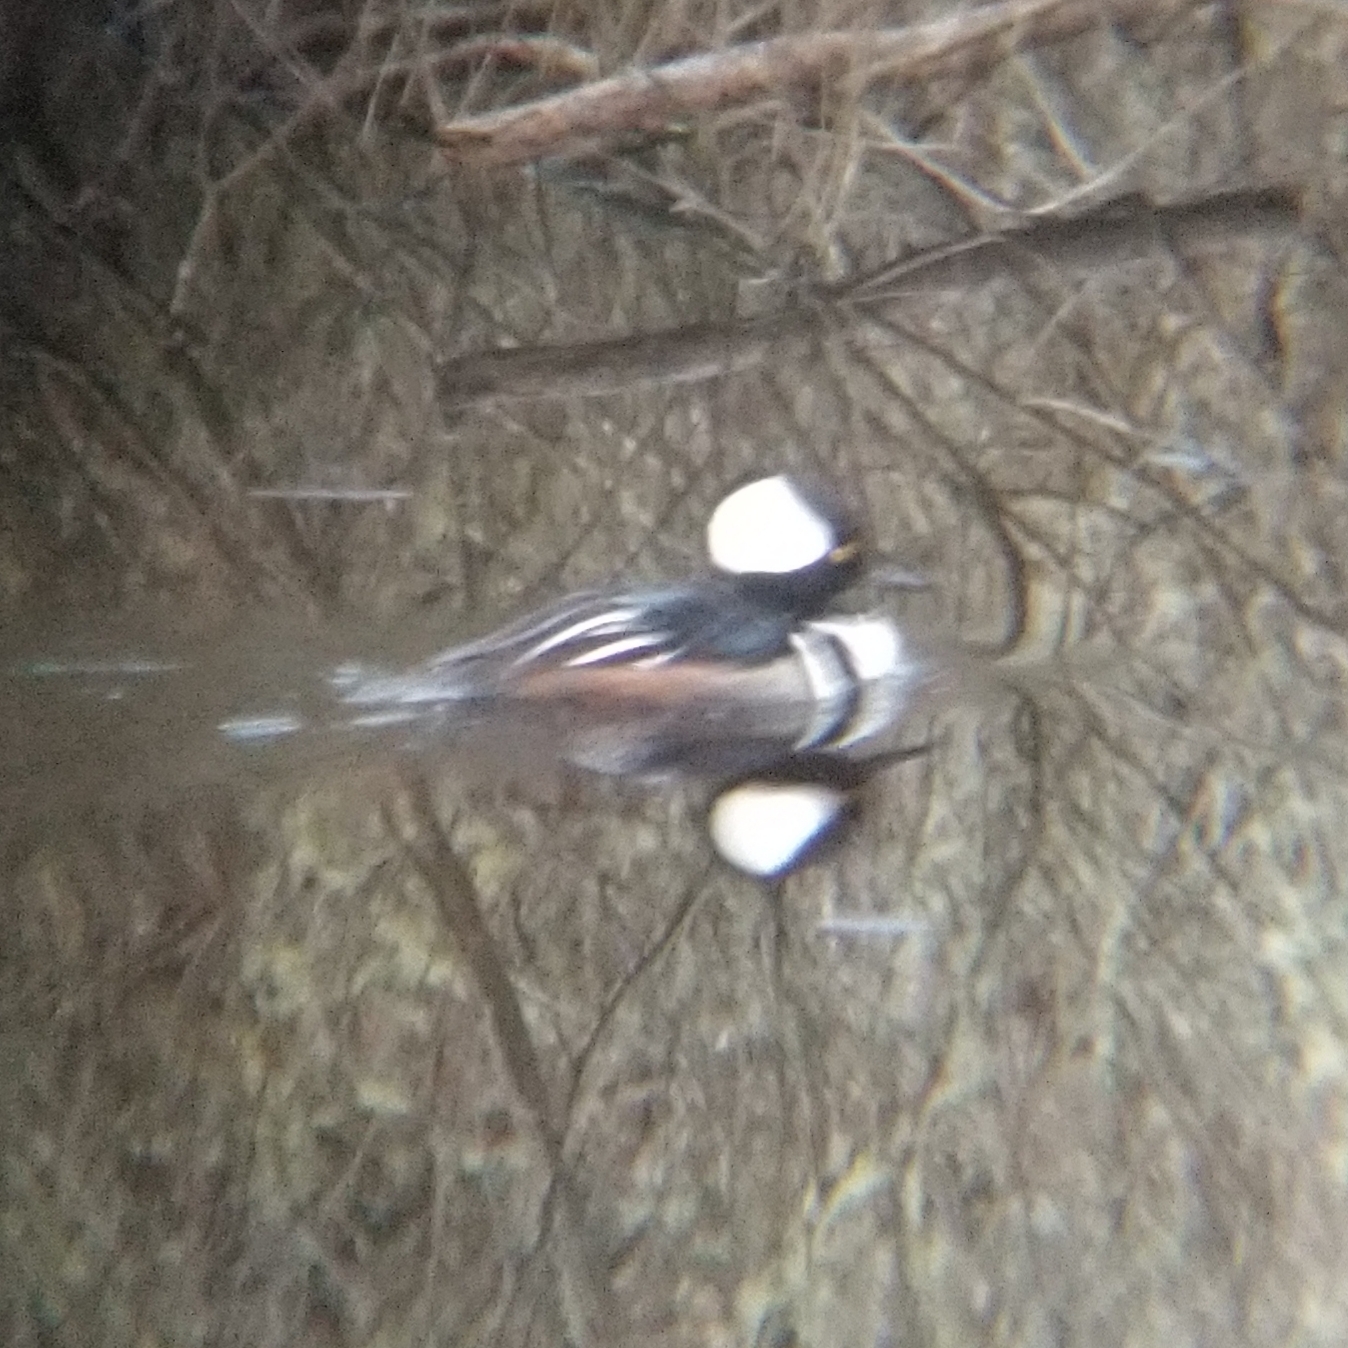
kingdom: Animalia
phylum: Chordata
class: Aves
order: Anseriformes
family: Anatidae
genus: Lophodytes
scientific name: Lophodytes cucullatus
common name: Hooded merganser
